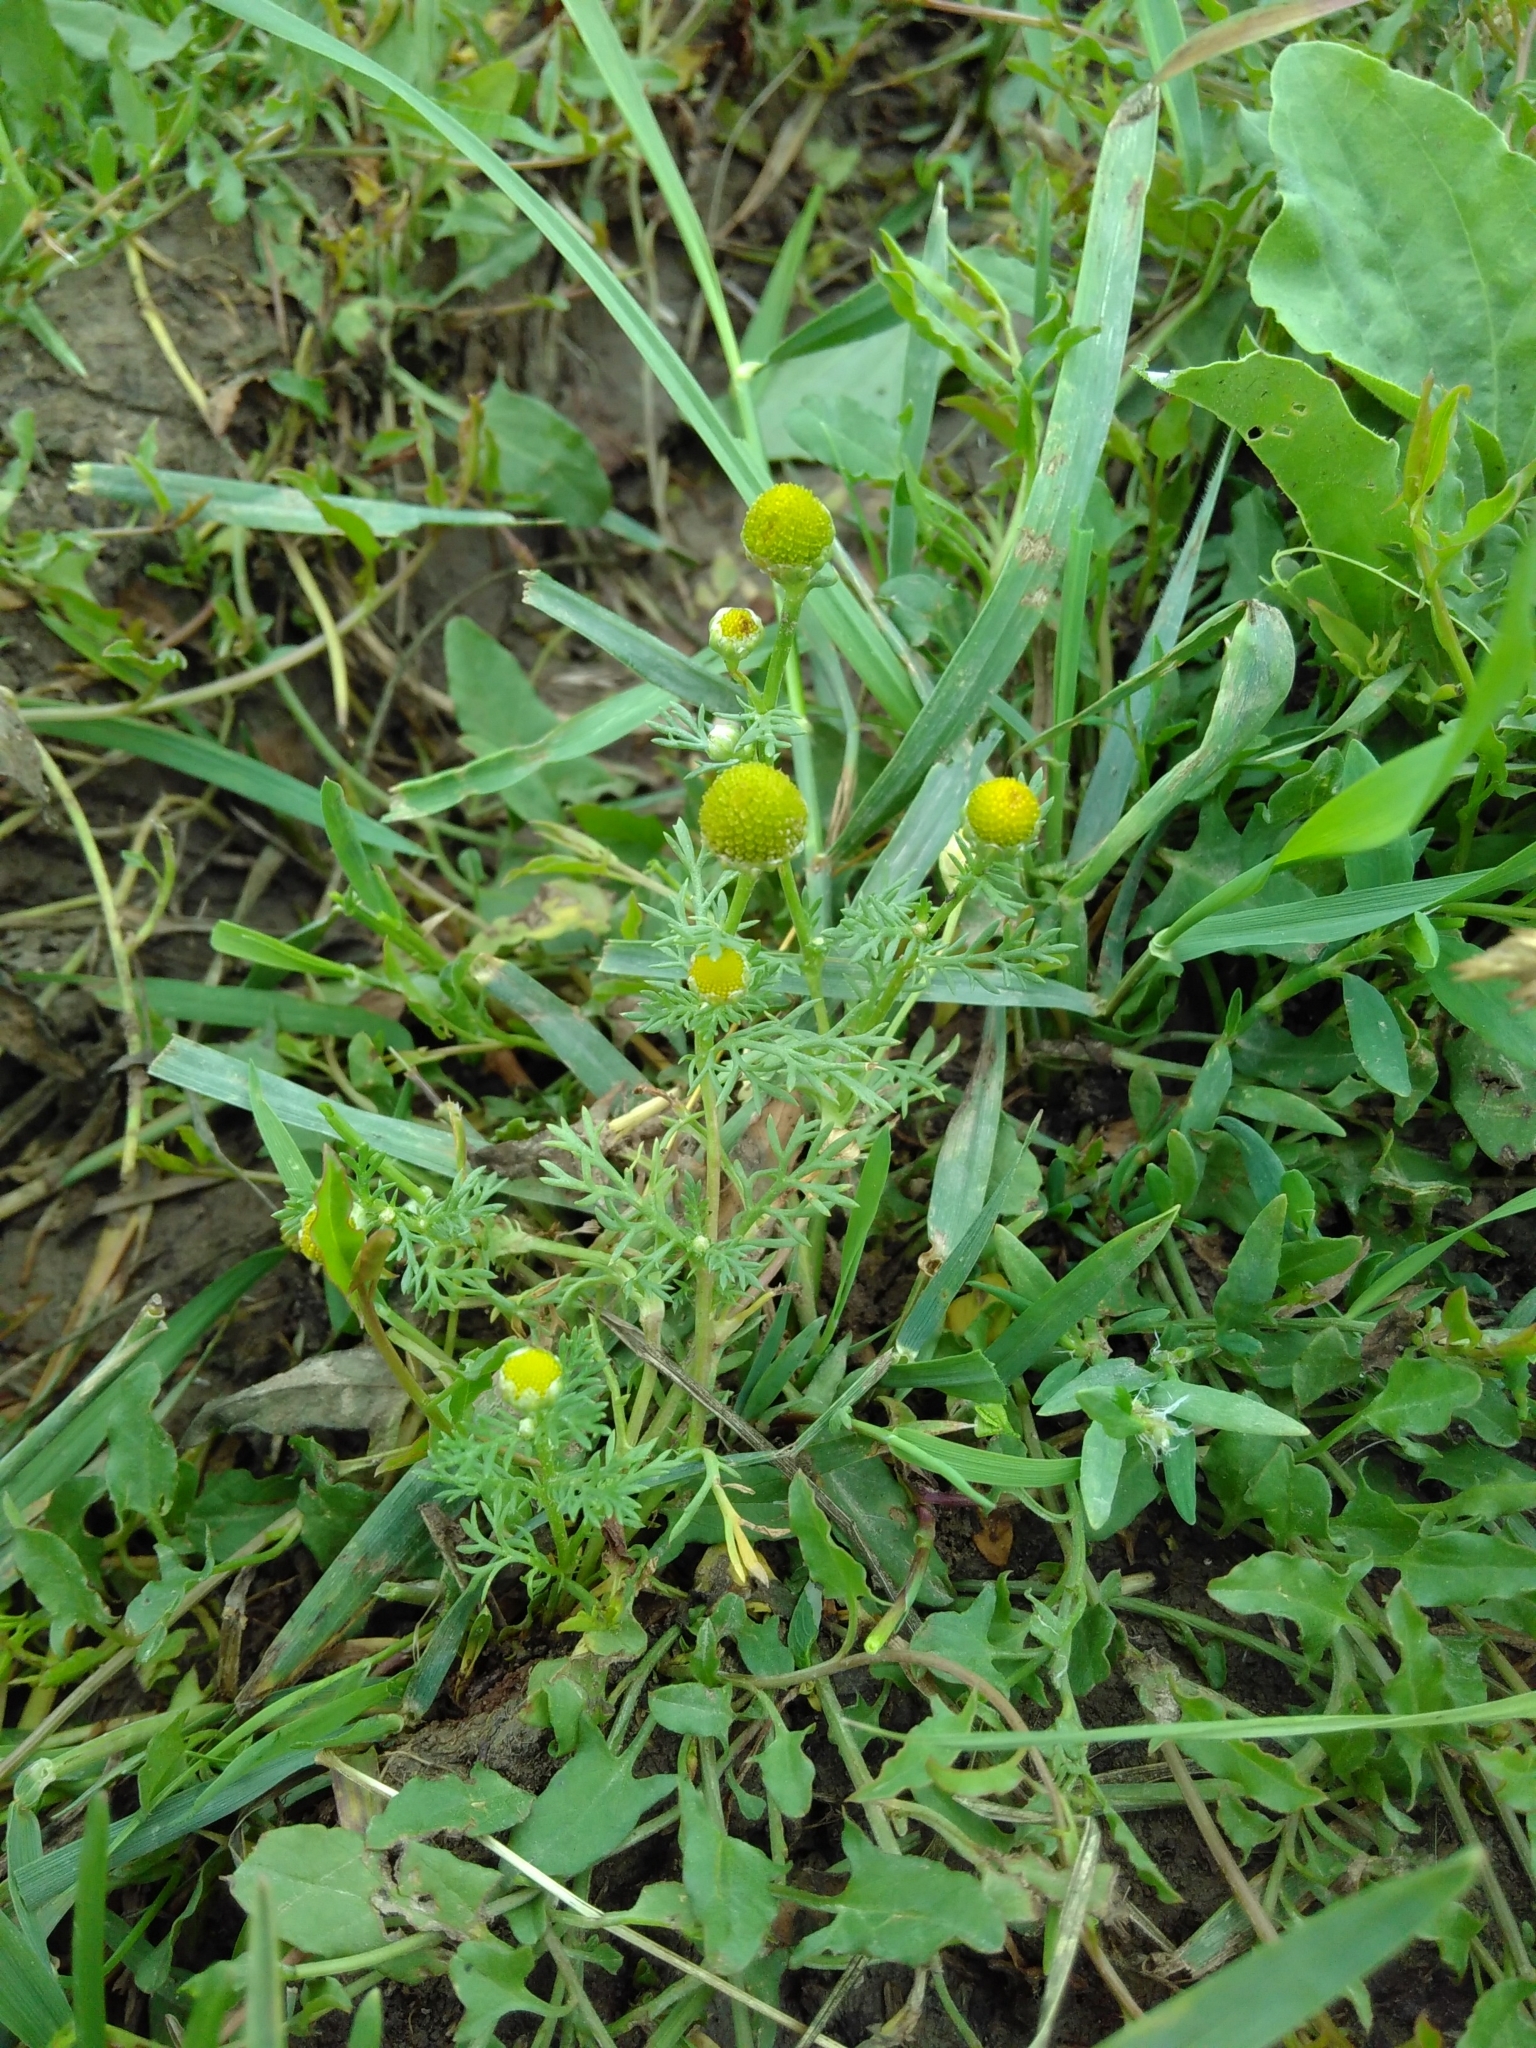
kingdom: Plantae
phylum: Tracheophyta
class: Magnoliopsida
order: Asterales
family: Asteraceae
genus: Matricaria
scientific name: Matricaria discoidea
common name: Disc mayweed
